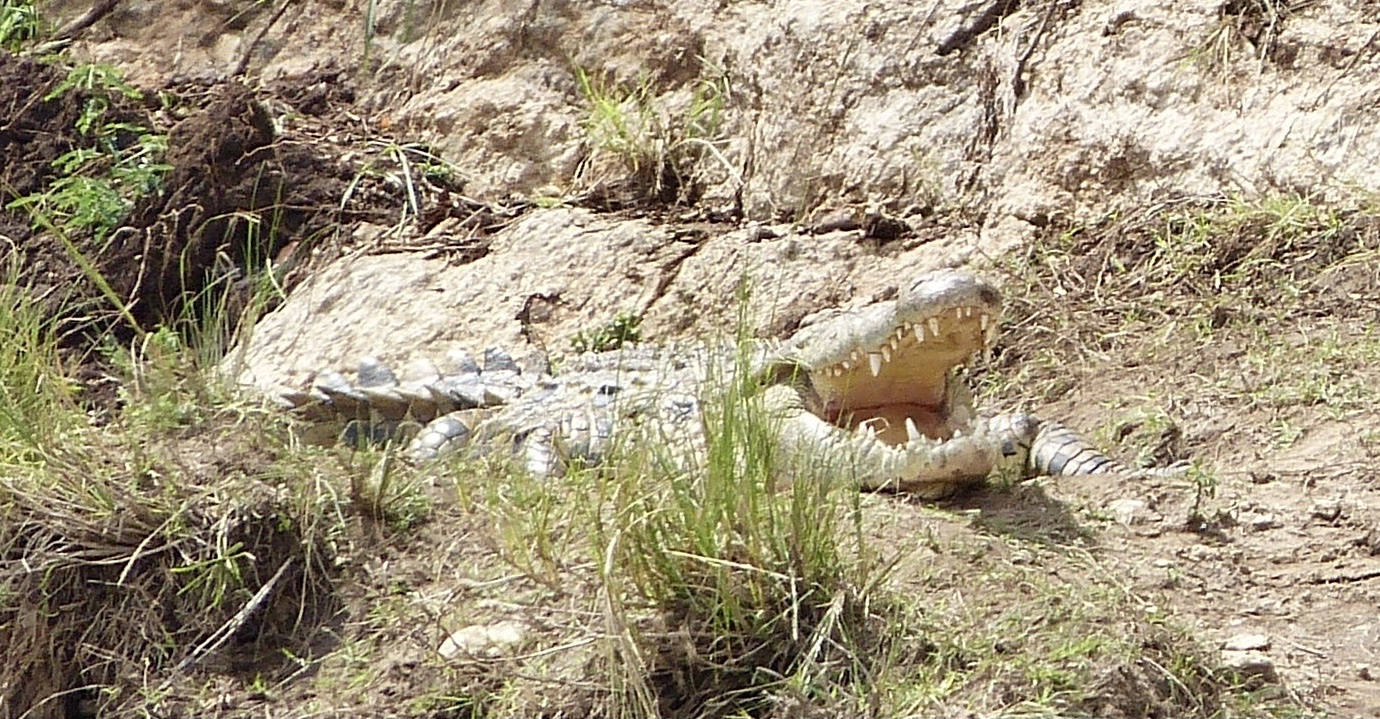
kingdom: Animalia
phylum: Chordata
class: Crocodylia
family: Crocodylidae
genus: Crocodylus
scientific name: Crocodylus niloticus
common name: Nile crocodile
